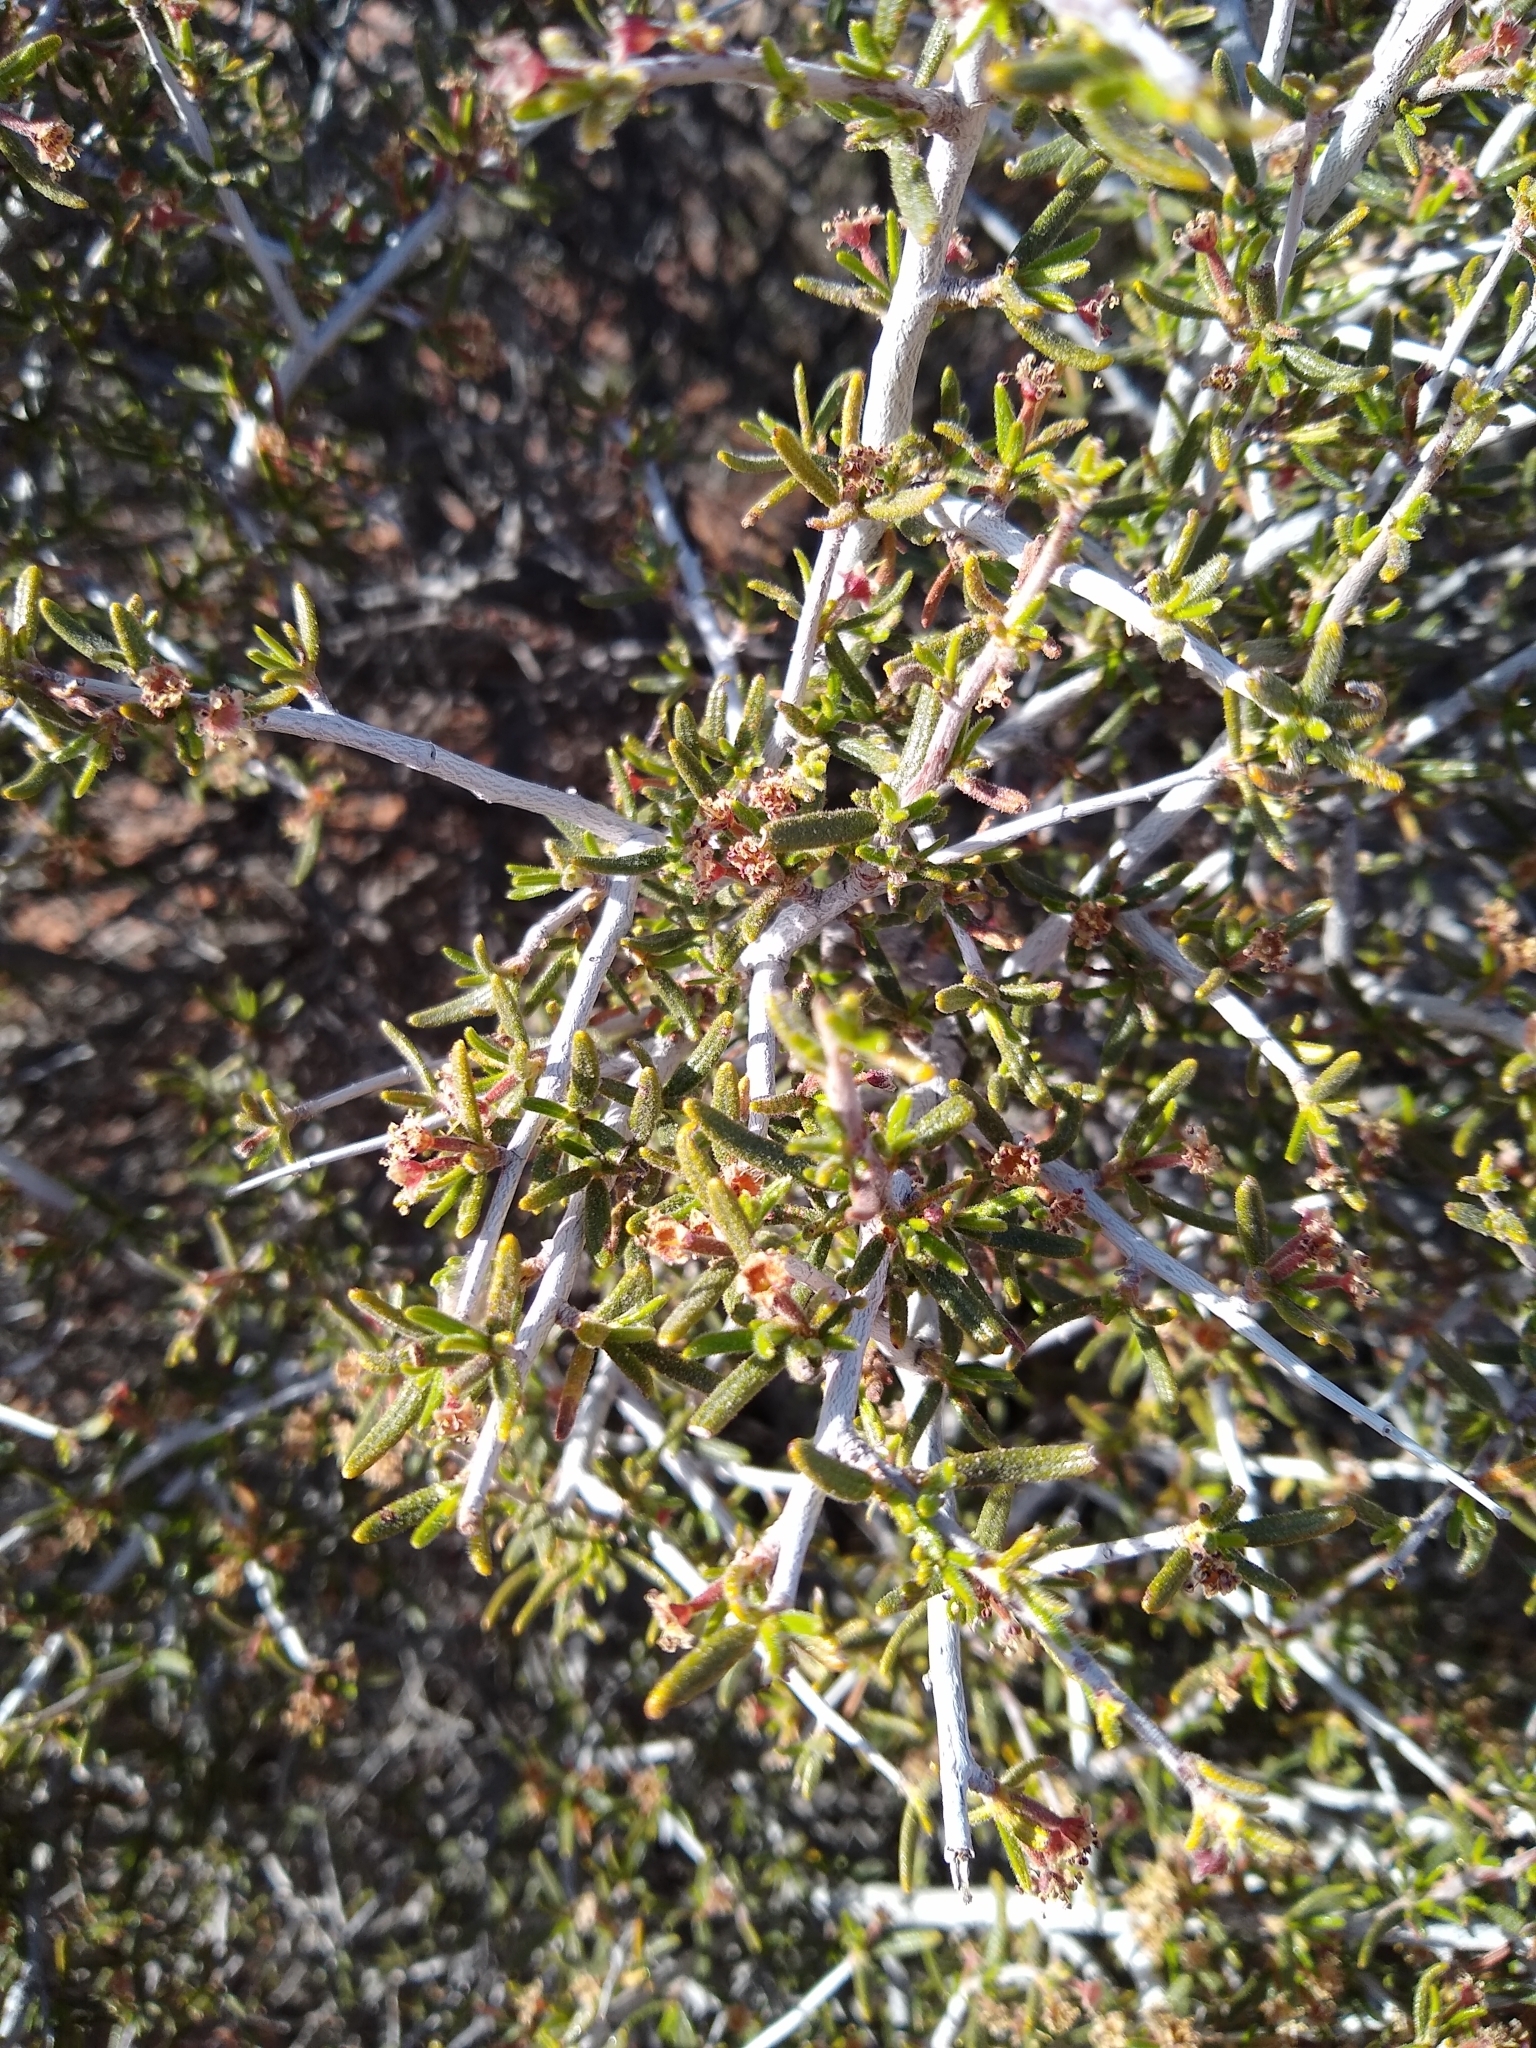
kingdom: Plantae
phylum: Tracheophyta
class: Magnoliopsida
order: Rosales
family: Rosaceae
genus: Cercocarpus
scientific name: Cercocarpus intricatus
